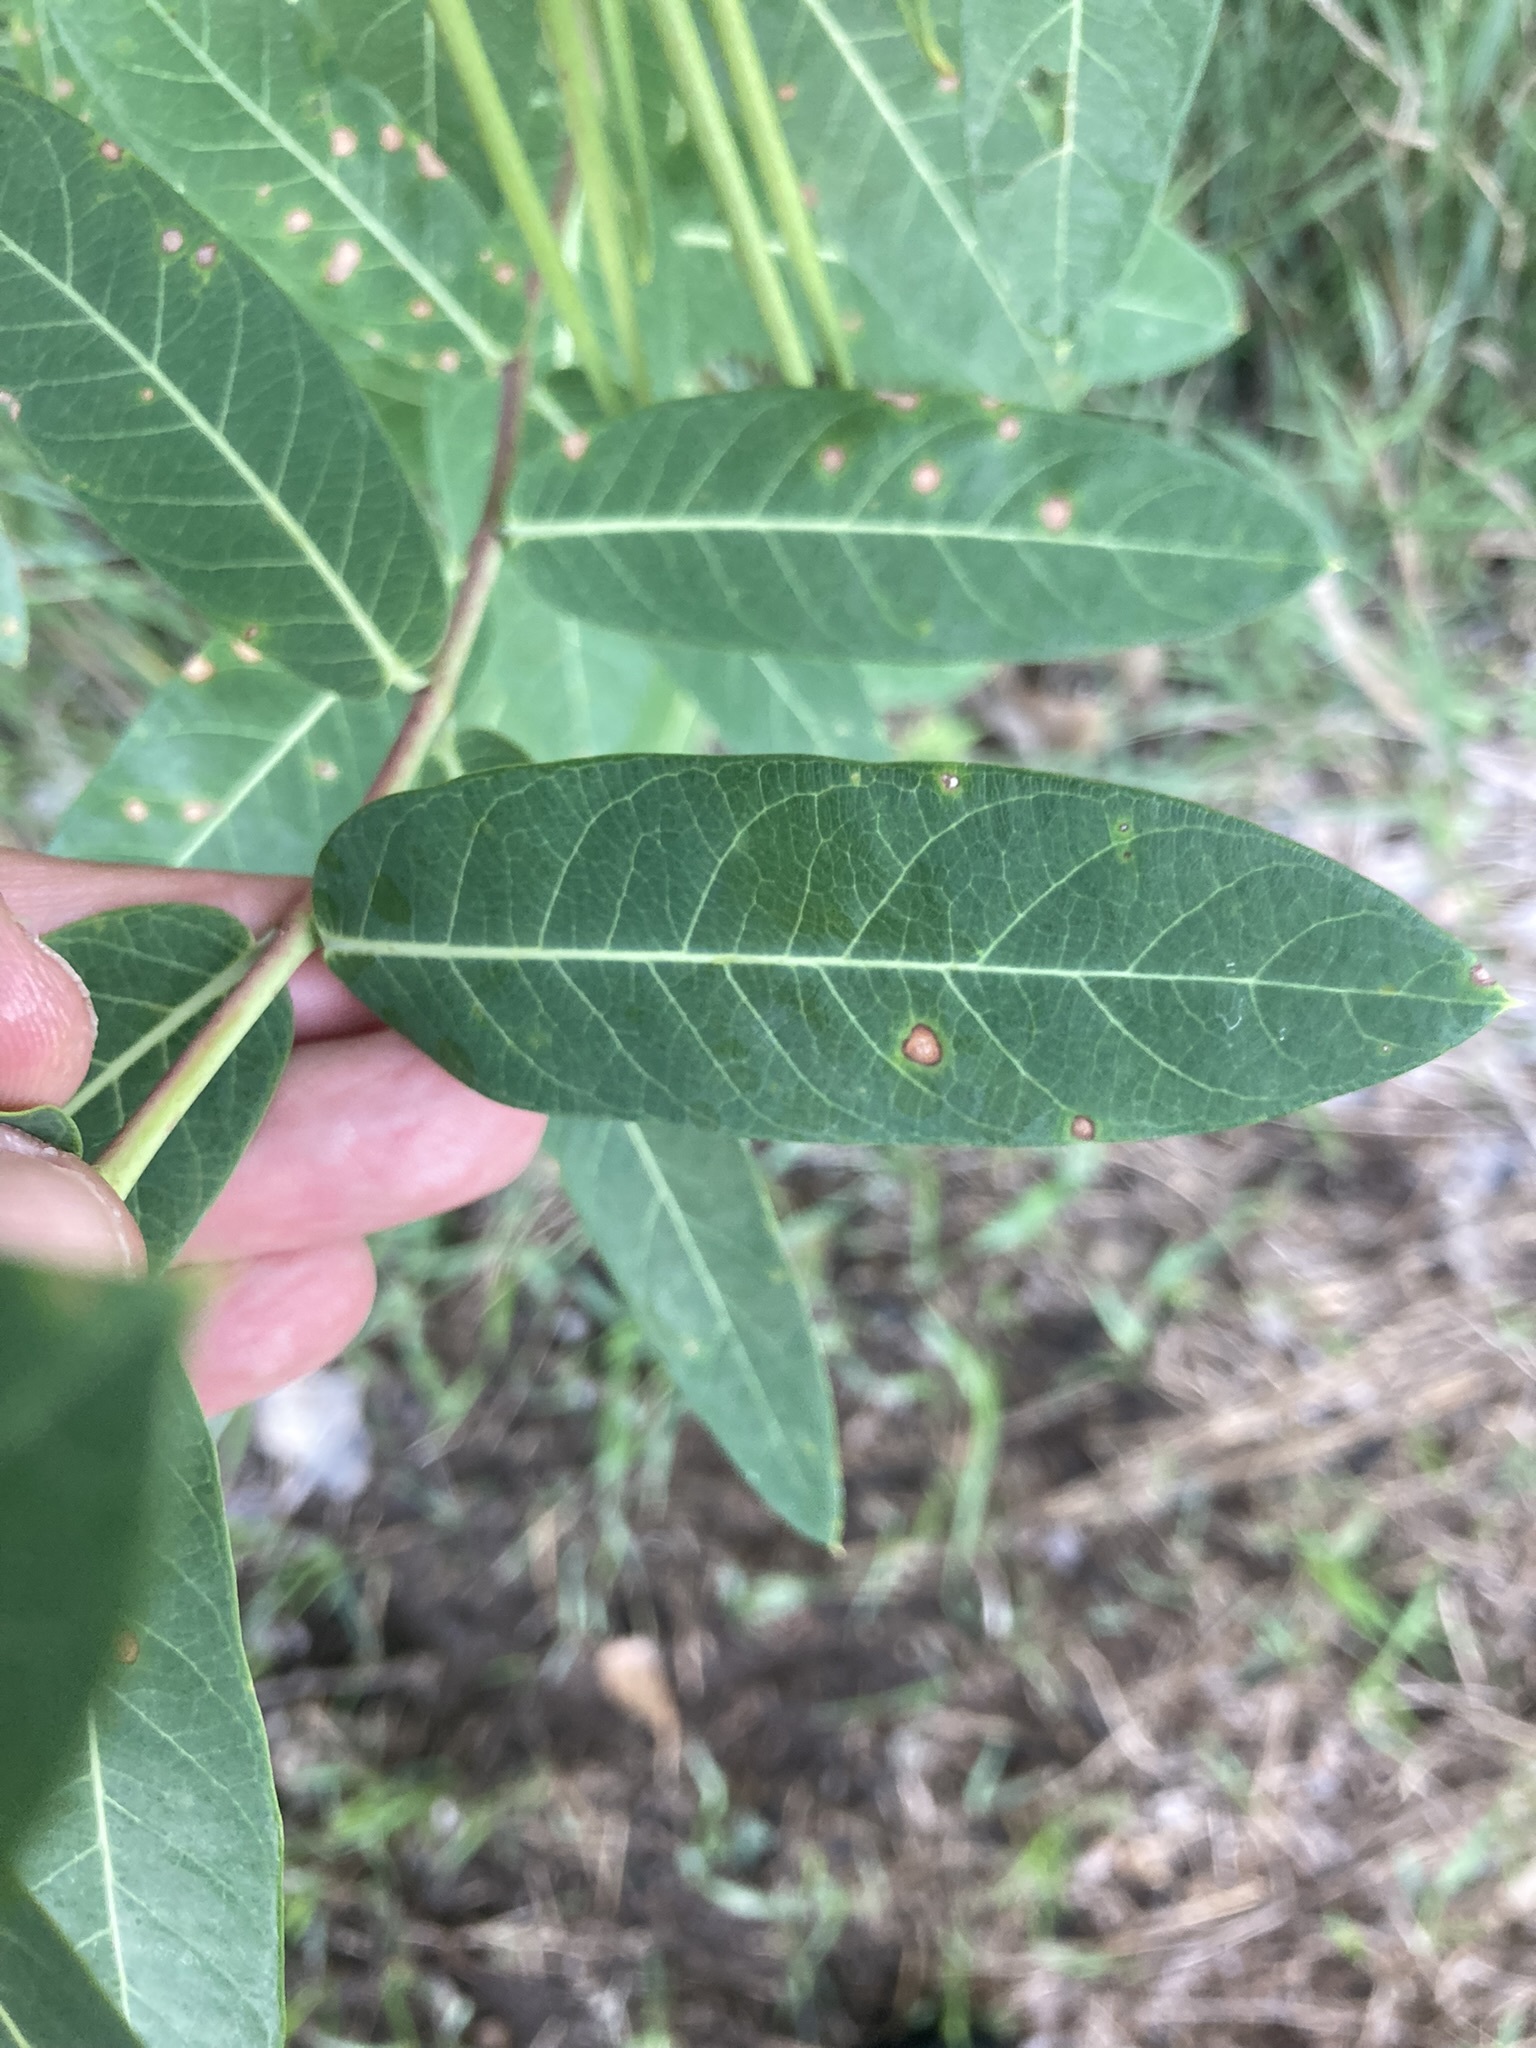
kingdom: Plantae
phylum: Tracheophyta
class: Magnoliopsida
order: Gentianales
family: Apocynaceae
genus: Apocynum
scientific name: Apocynum cannabinum
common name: Hemp dogbane
